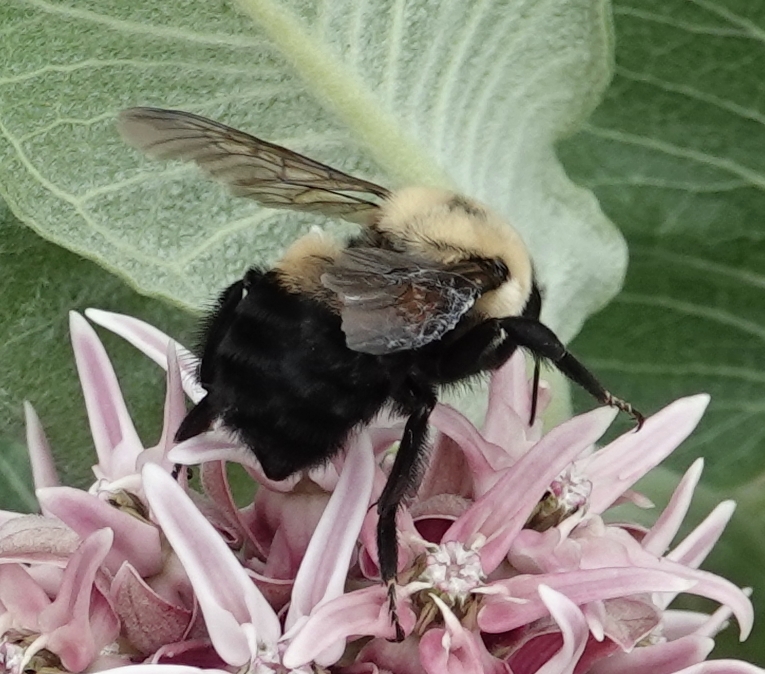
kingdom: Animalia
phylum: Arthropoda
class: Insecta
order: Hymenoptera
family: Apidae
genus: Bombus
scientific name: Bombus griseocollis
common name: Brown-belted bumble bee
